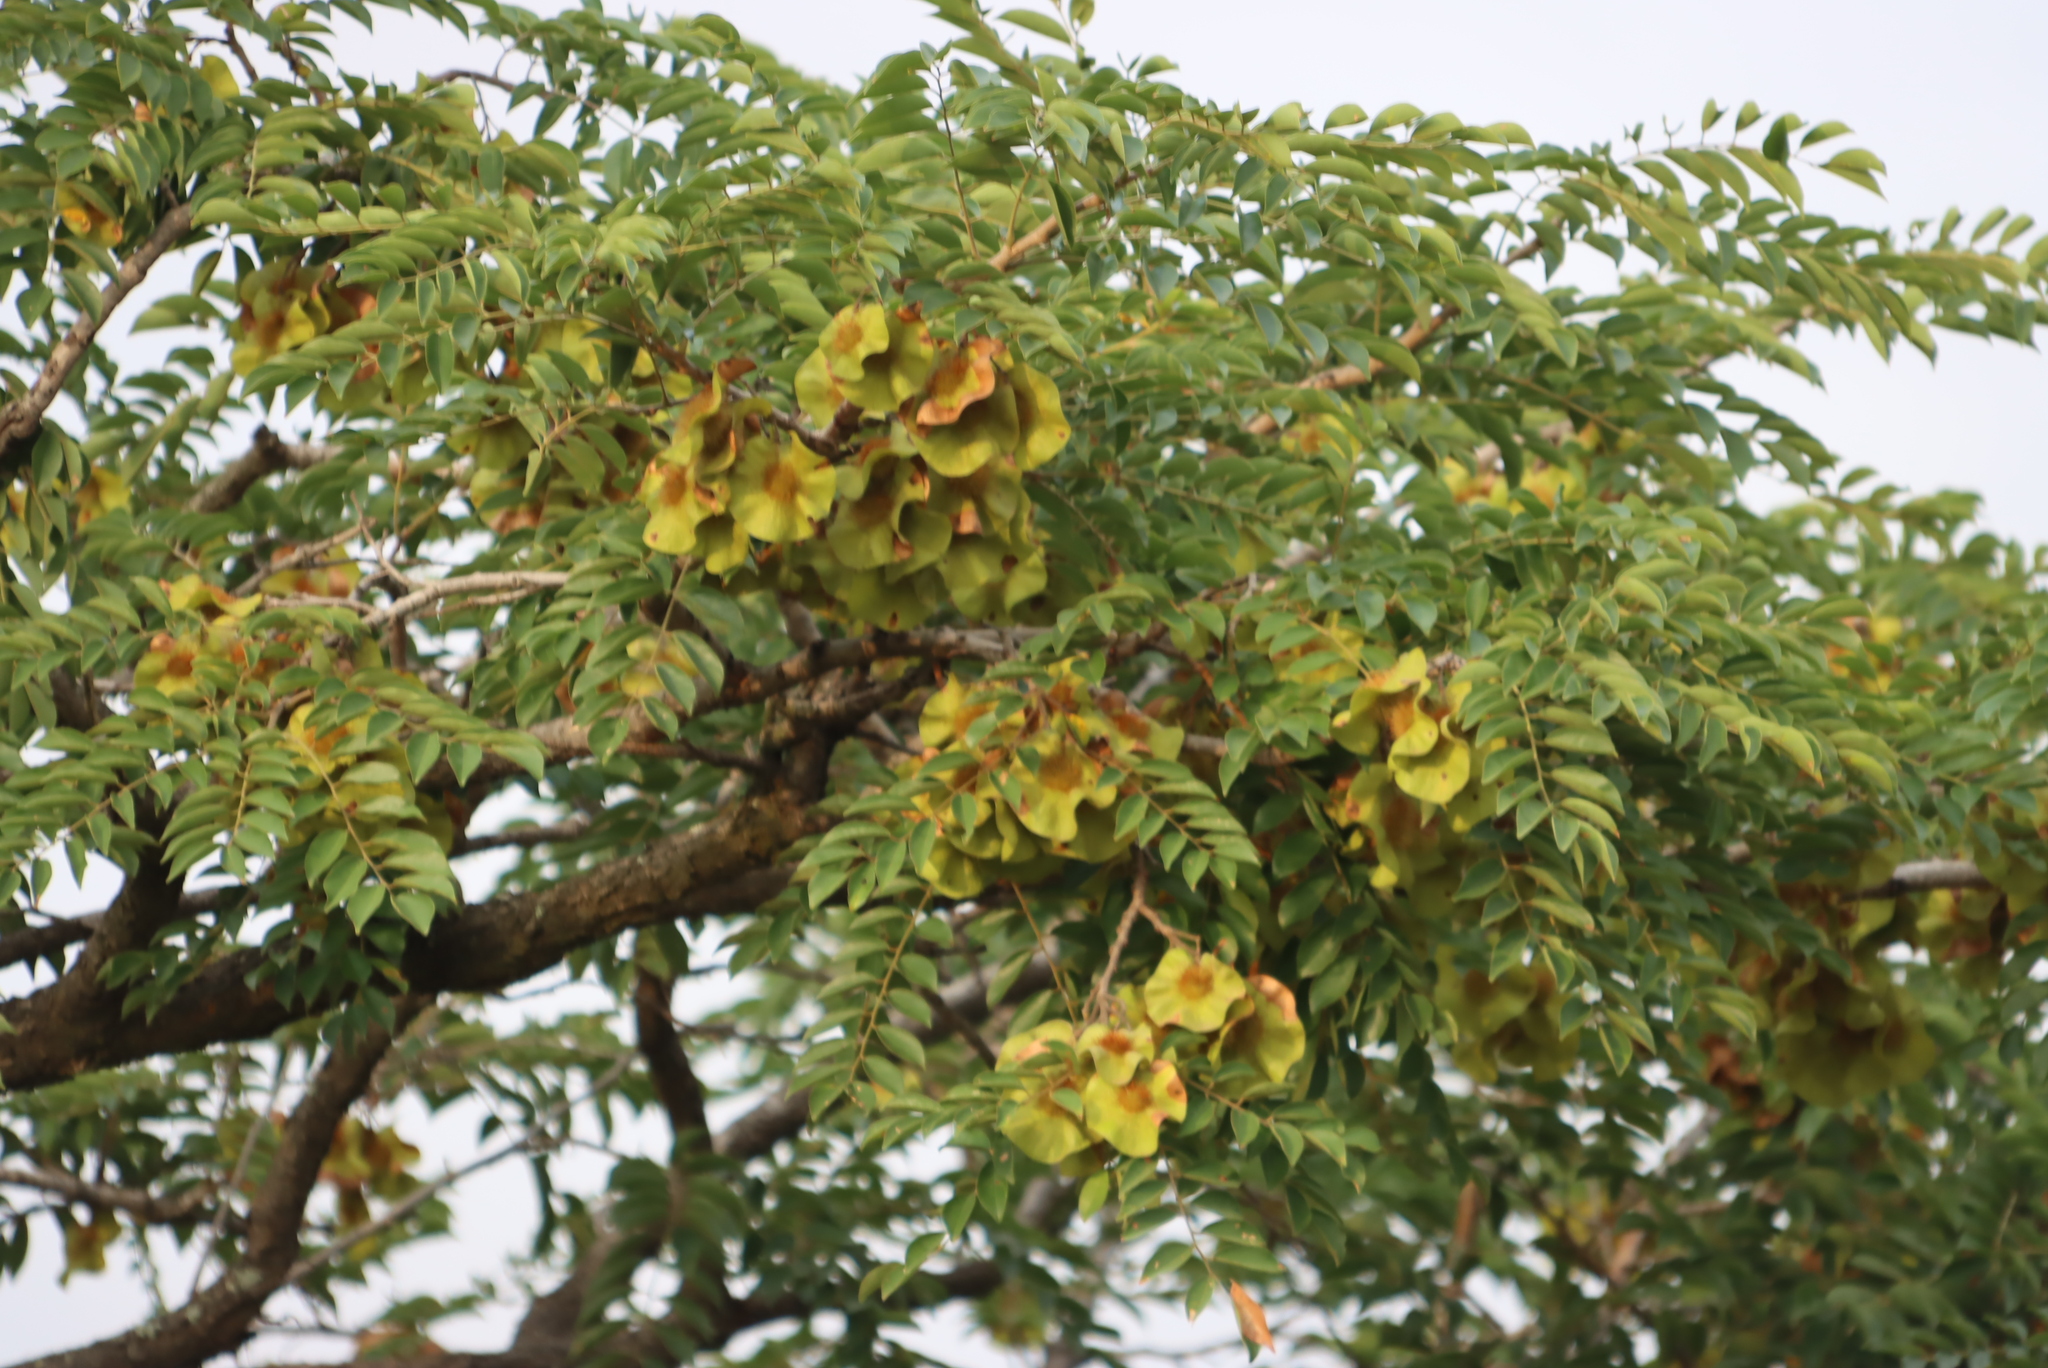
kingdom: Plantae
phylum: Tracheophyta
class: Magnoliopsida
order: Fabales
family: Fabaceae
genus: Pterocarpus
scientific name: Pterocarpus angolensis
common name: Bloodwood tree
